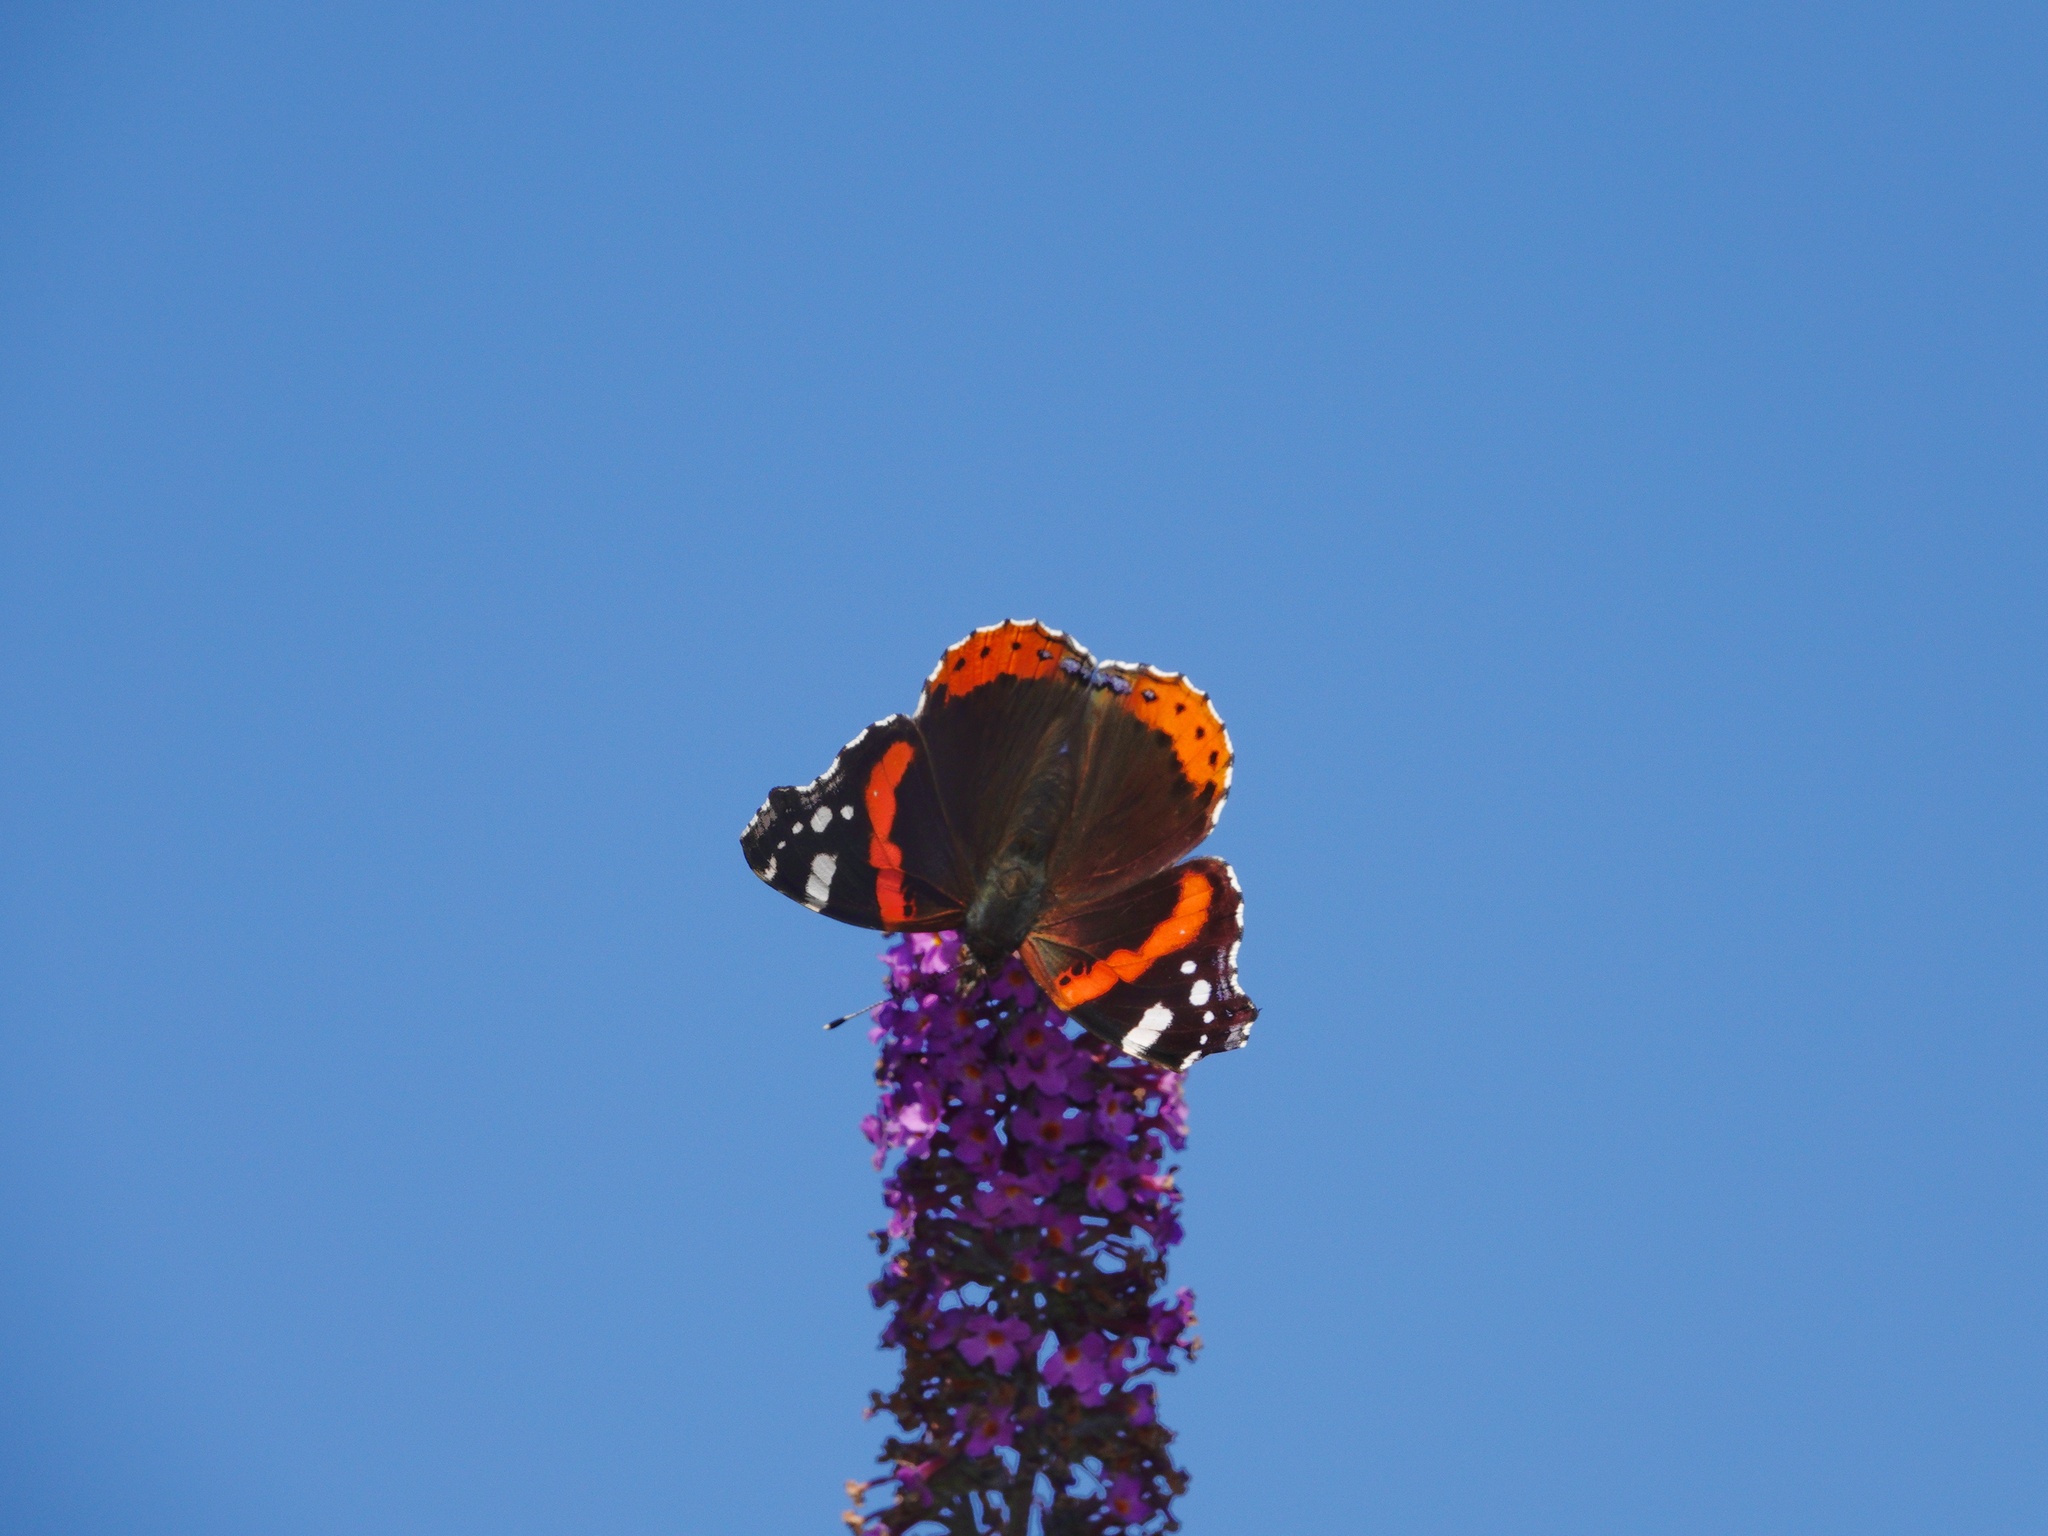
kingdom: Animalia
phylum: Arthropoda
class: Insecta
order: Lepidoptera
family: Nymphalidae
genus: Vanessa
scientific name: Vanessa atalanta
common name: Red admiral
